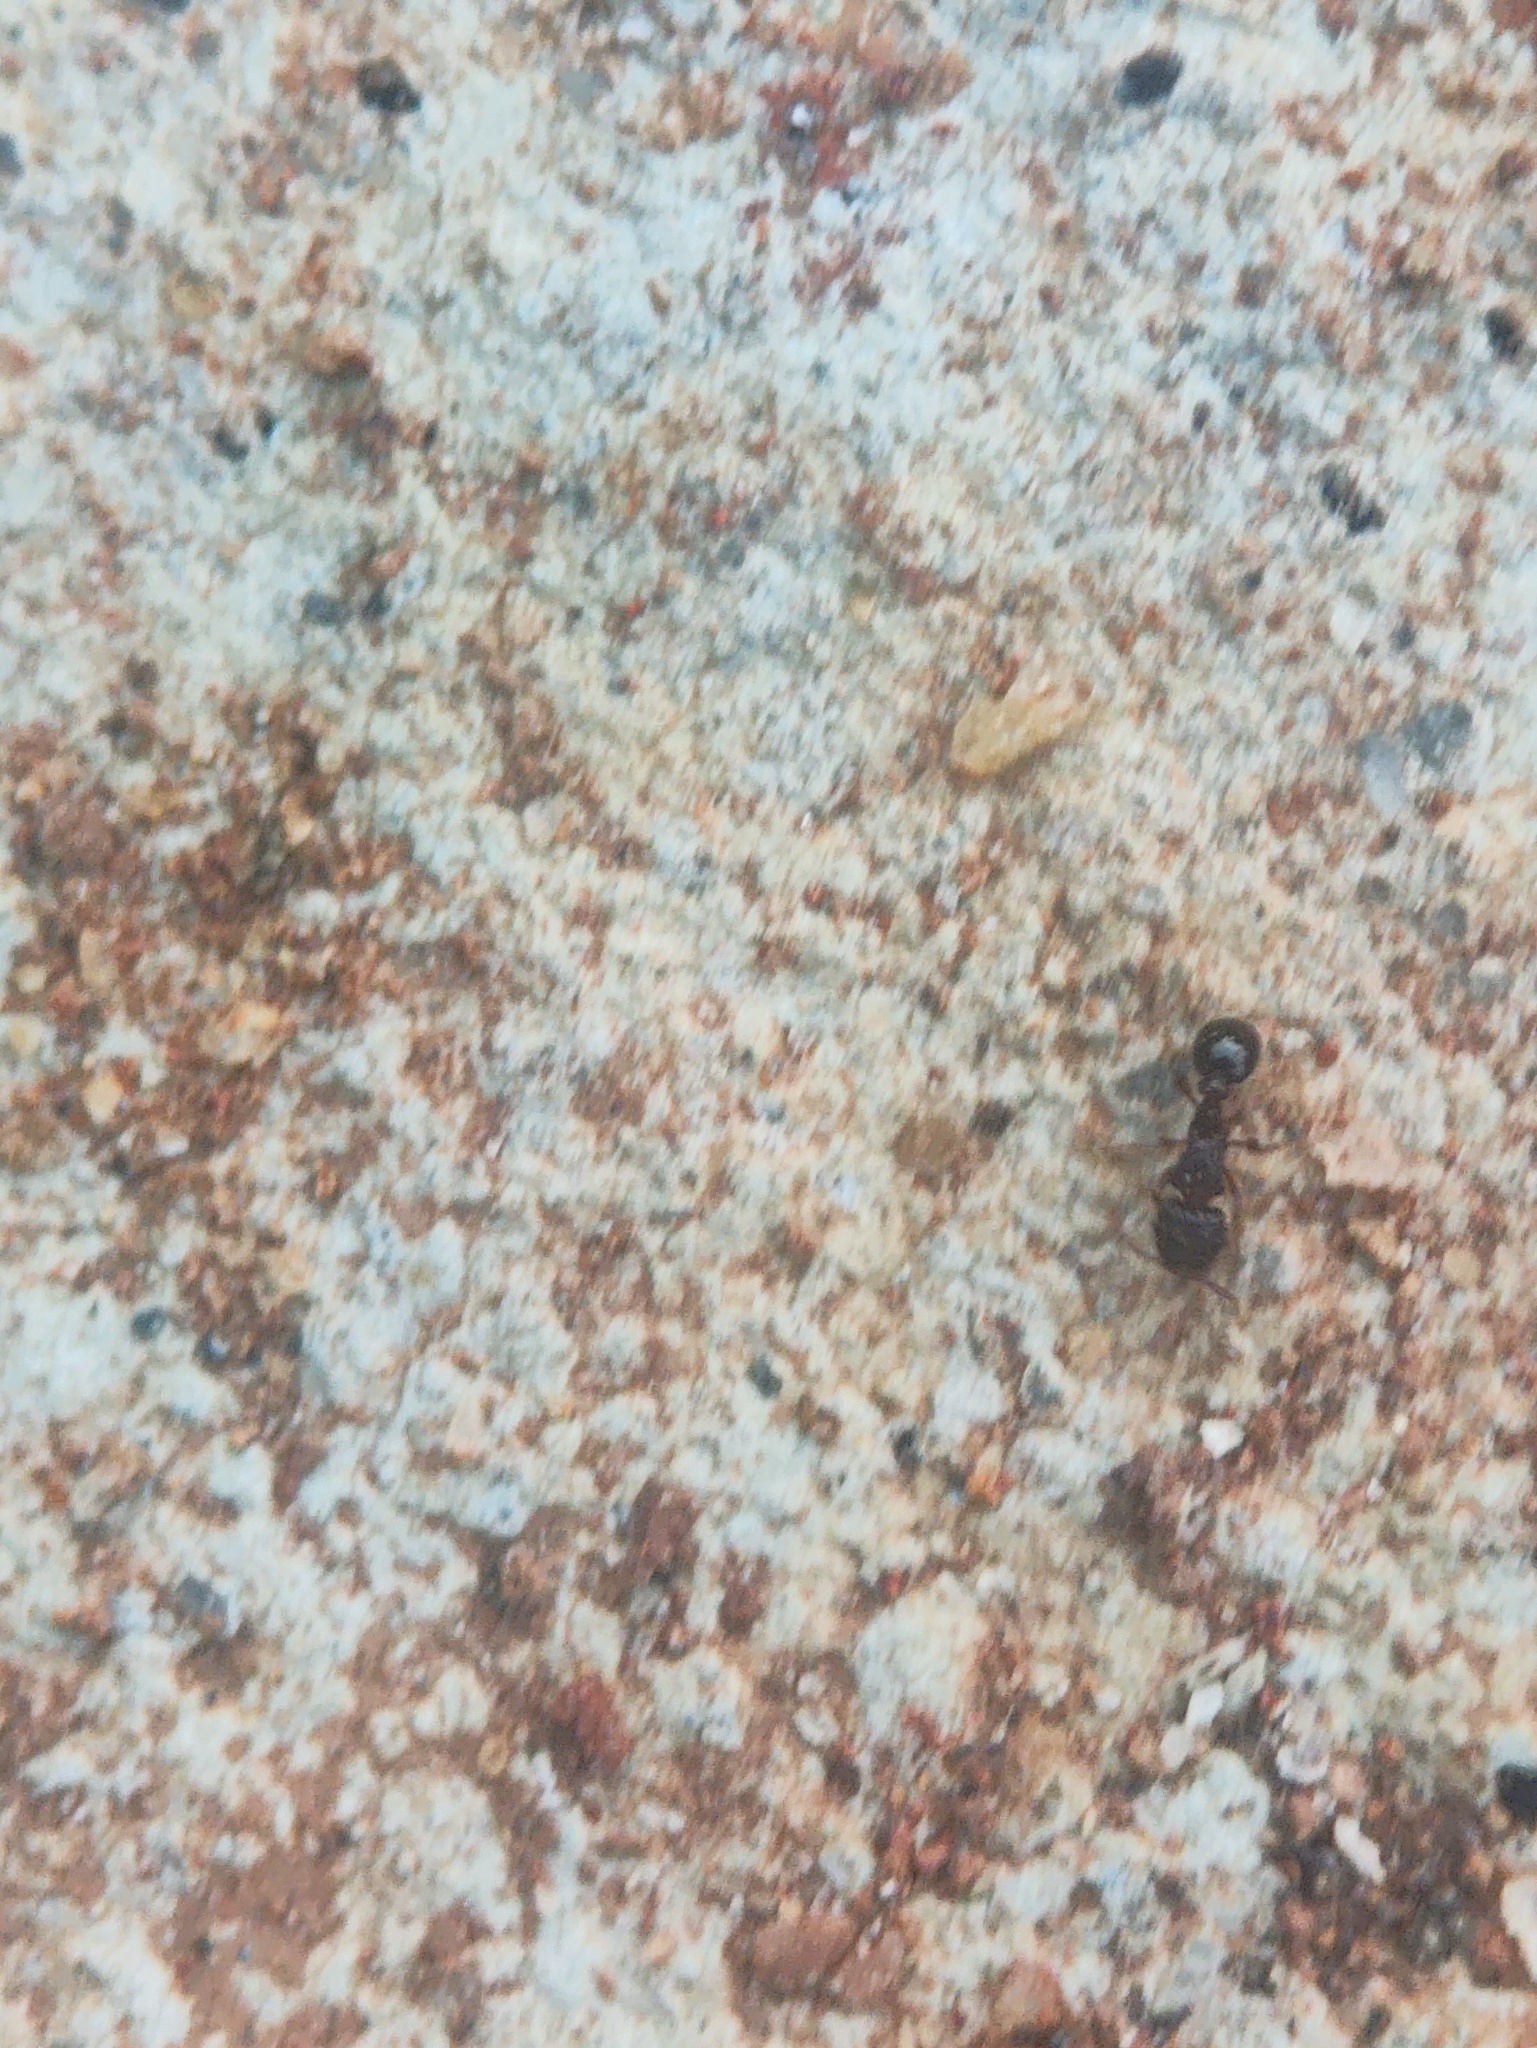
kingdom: Animalia
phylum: Arthropoda
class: Insecta
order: Hymenoptera
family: Formicidae
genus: Tetramorium
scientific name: Tetramorium smithi
